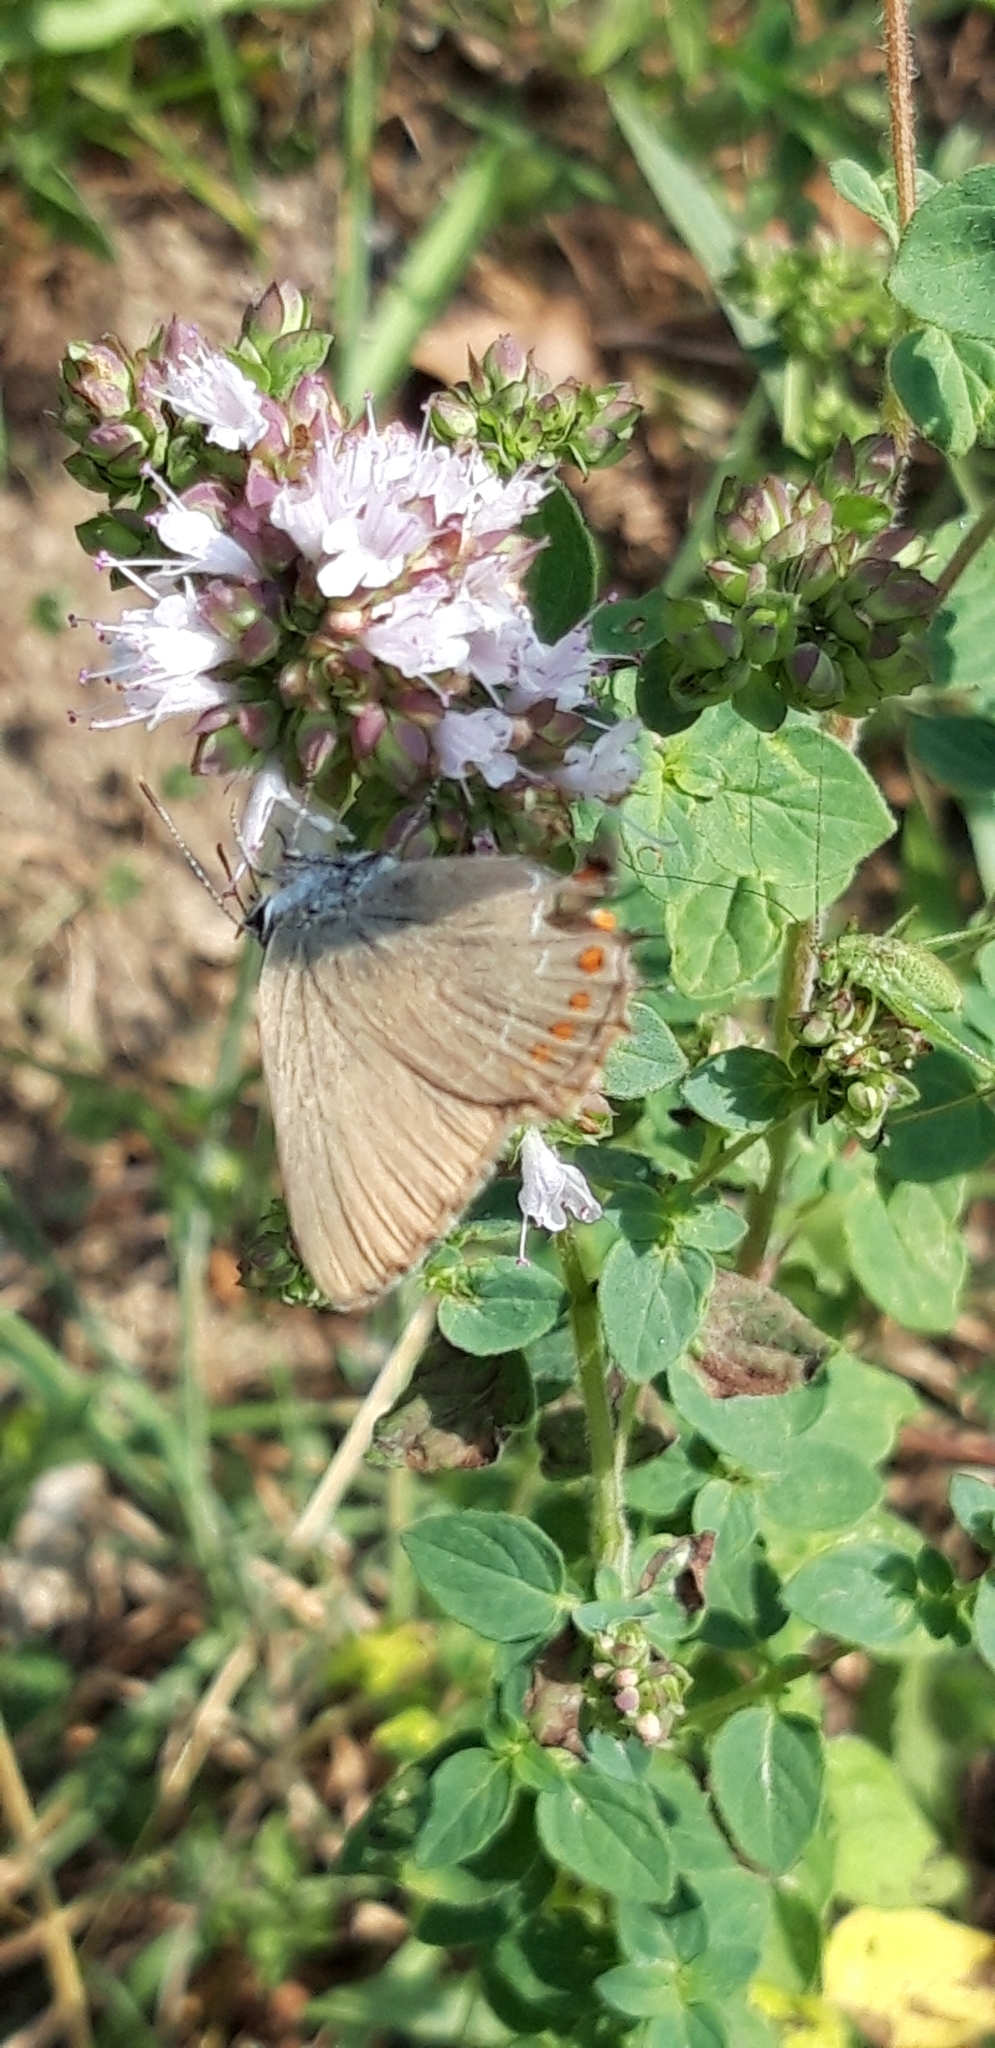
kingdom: Animalia
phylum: Arthropoda
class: Insecta
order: Lepidoptera
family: Lycaenidae
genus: Fixsenia
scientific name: Fixsenia esculi
